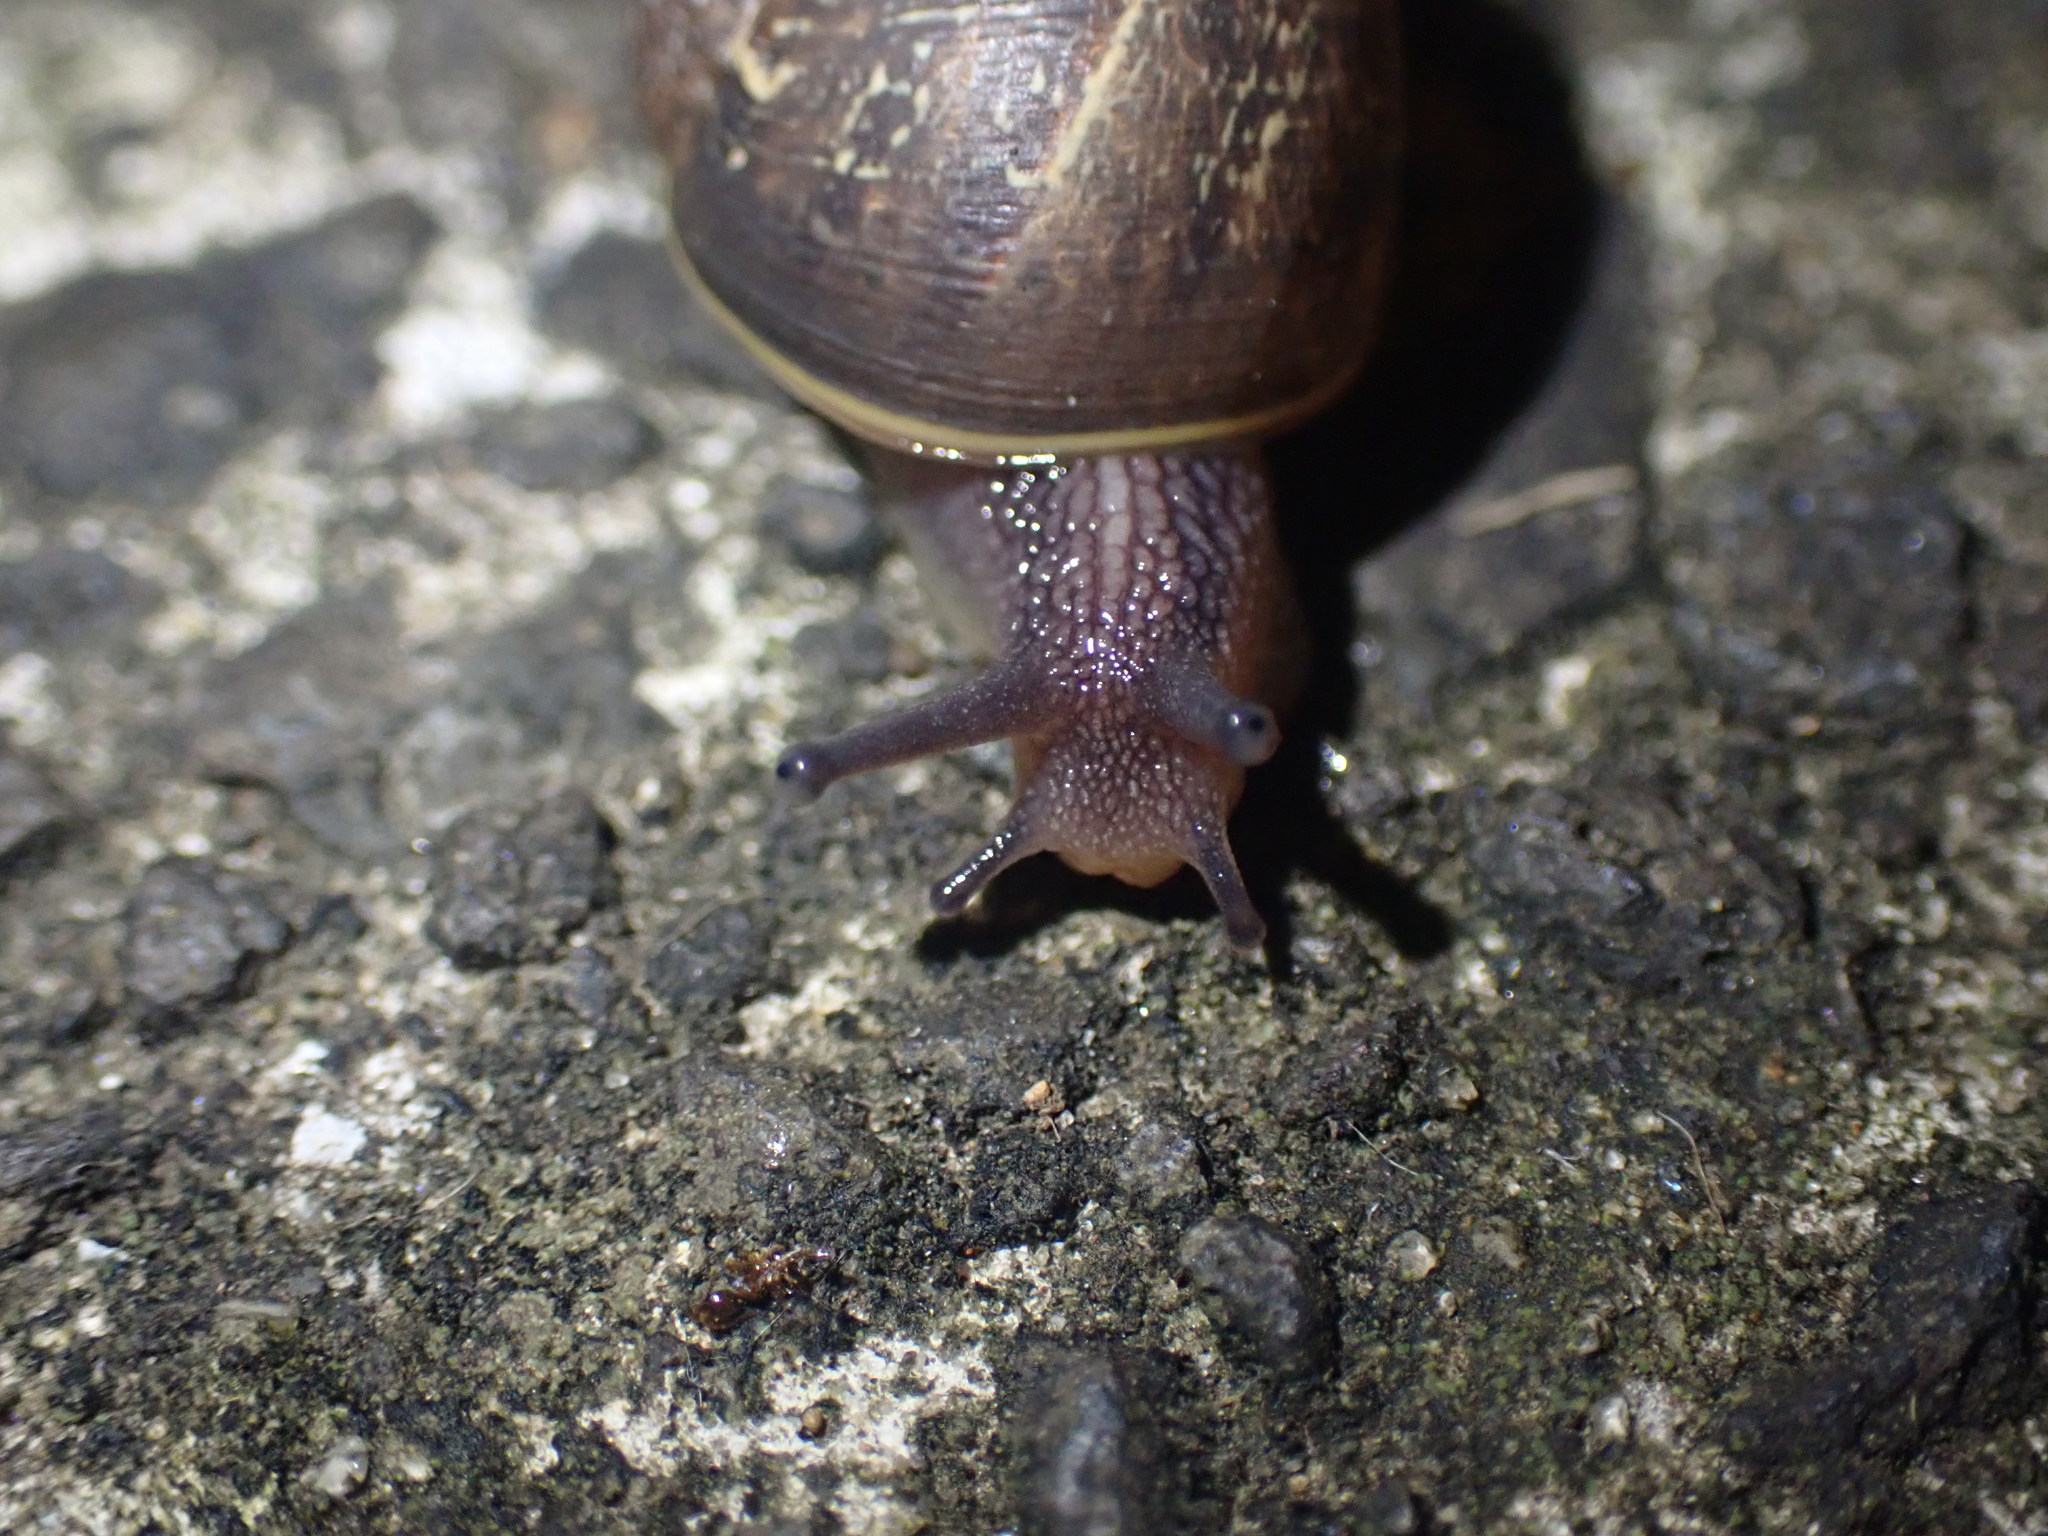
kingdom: Animalia
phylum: Mollusca
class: Gastropoda
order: Stylommatophora
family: Helicidae
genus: Cornu
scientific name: Cornu aspersum
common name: Brown garden snail
